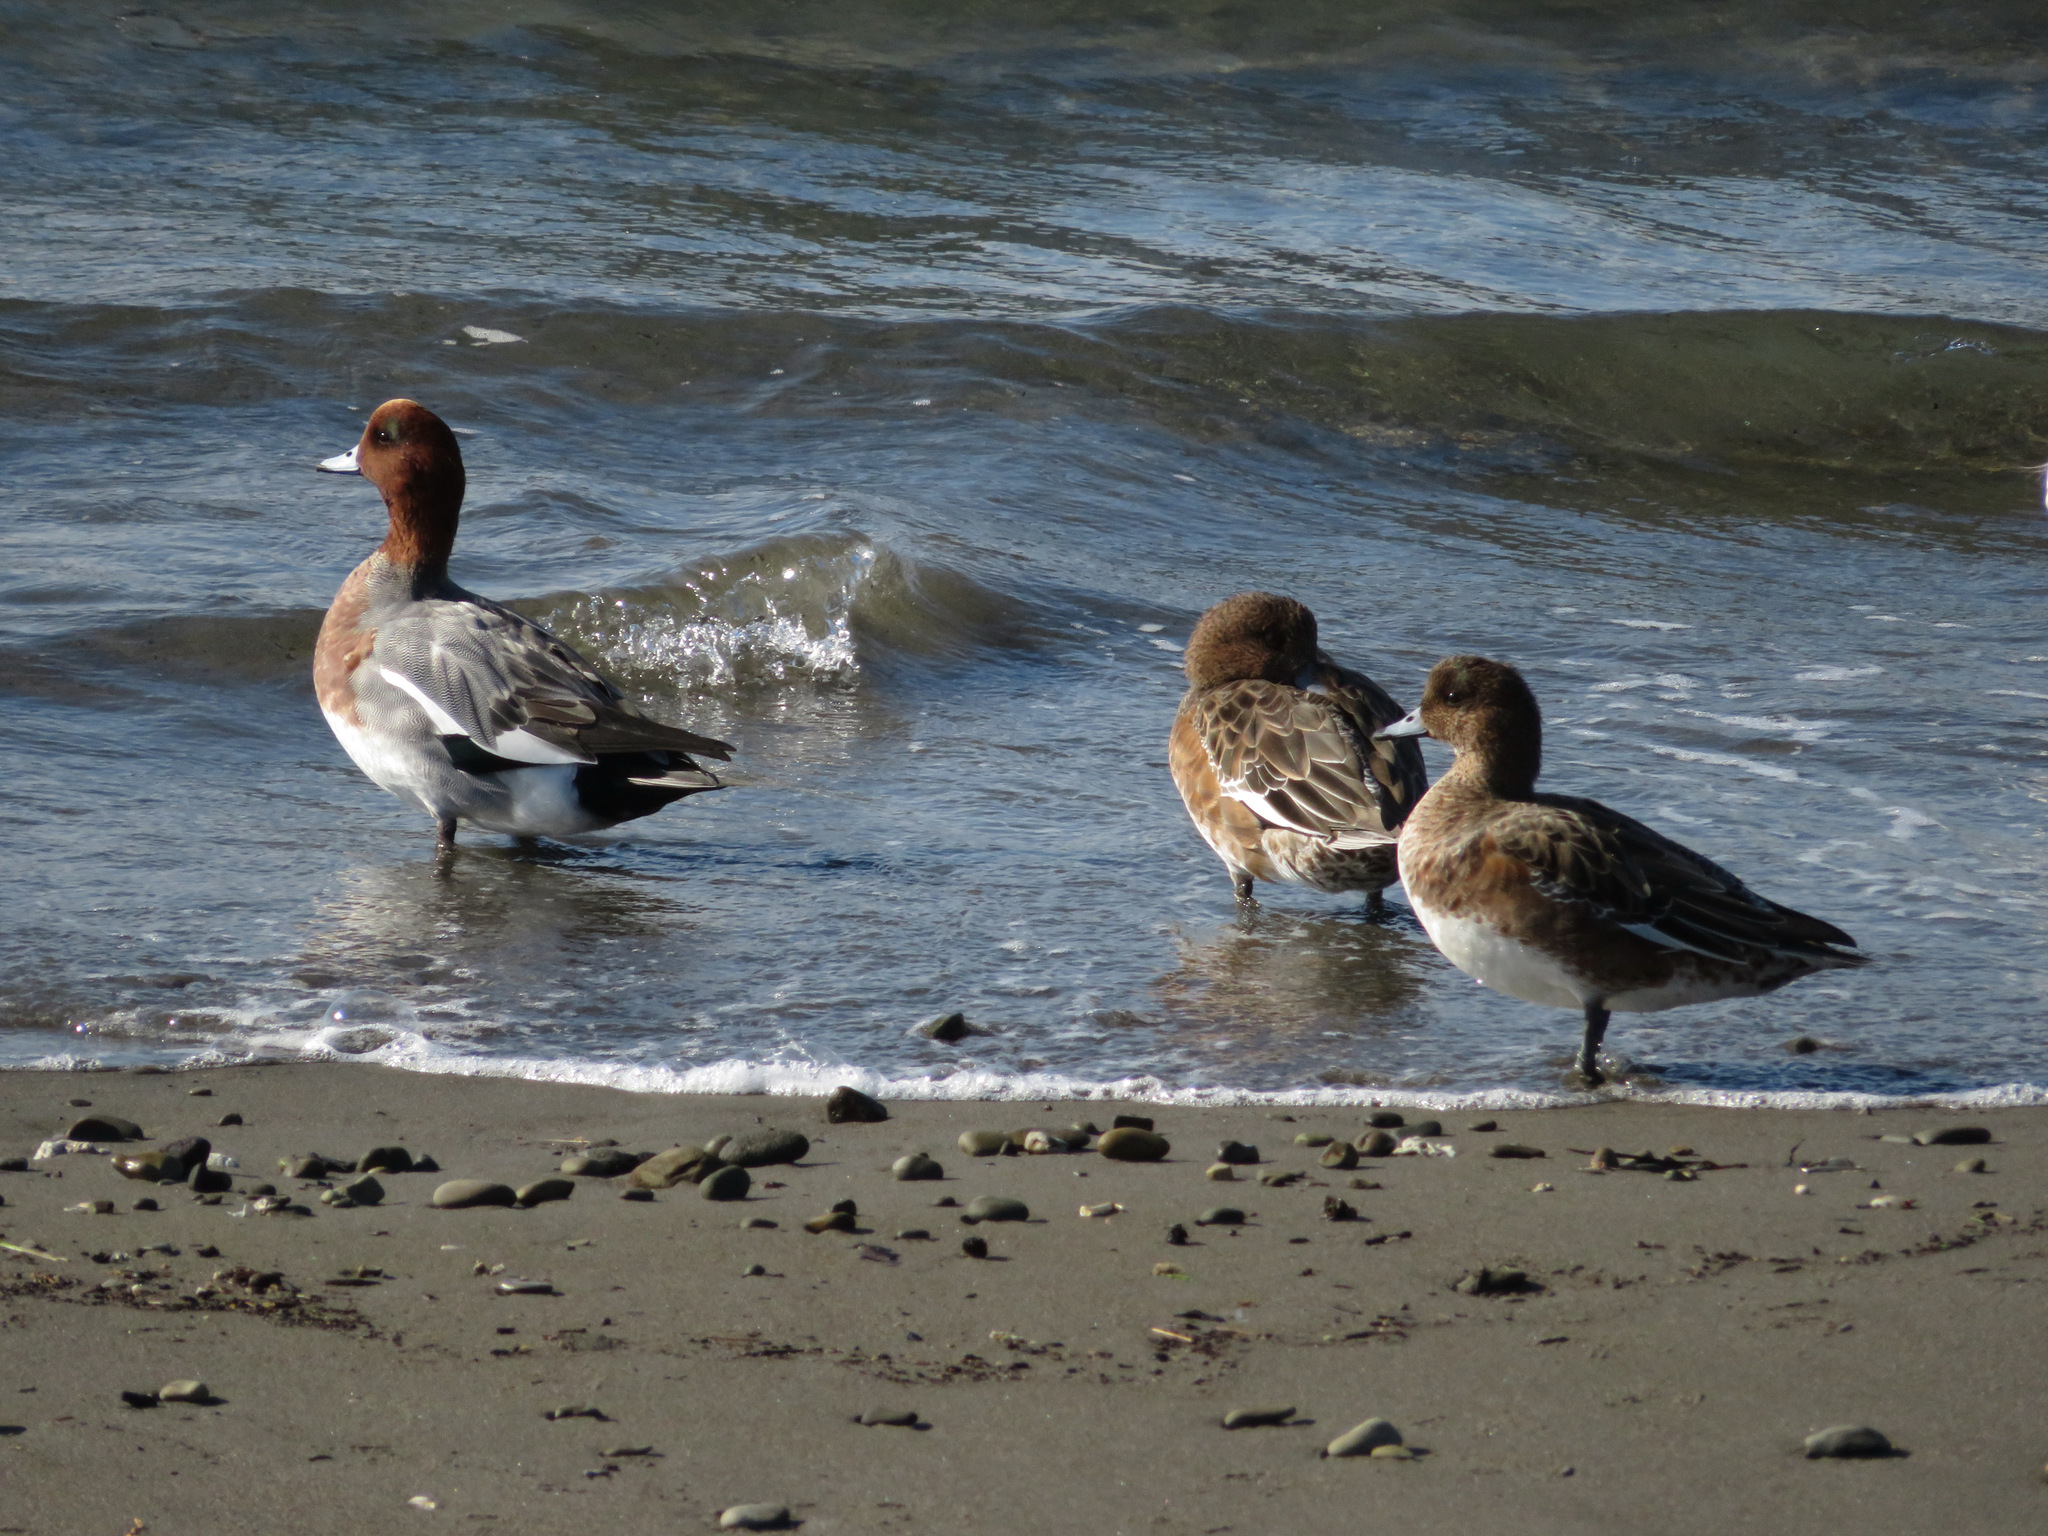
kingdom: Animalia
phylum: Chordata
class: Aves
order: Anseriformes
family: Anatidae
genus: Mareca
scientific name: Mareca penelope
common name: Eurasian wigeon
